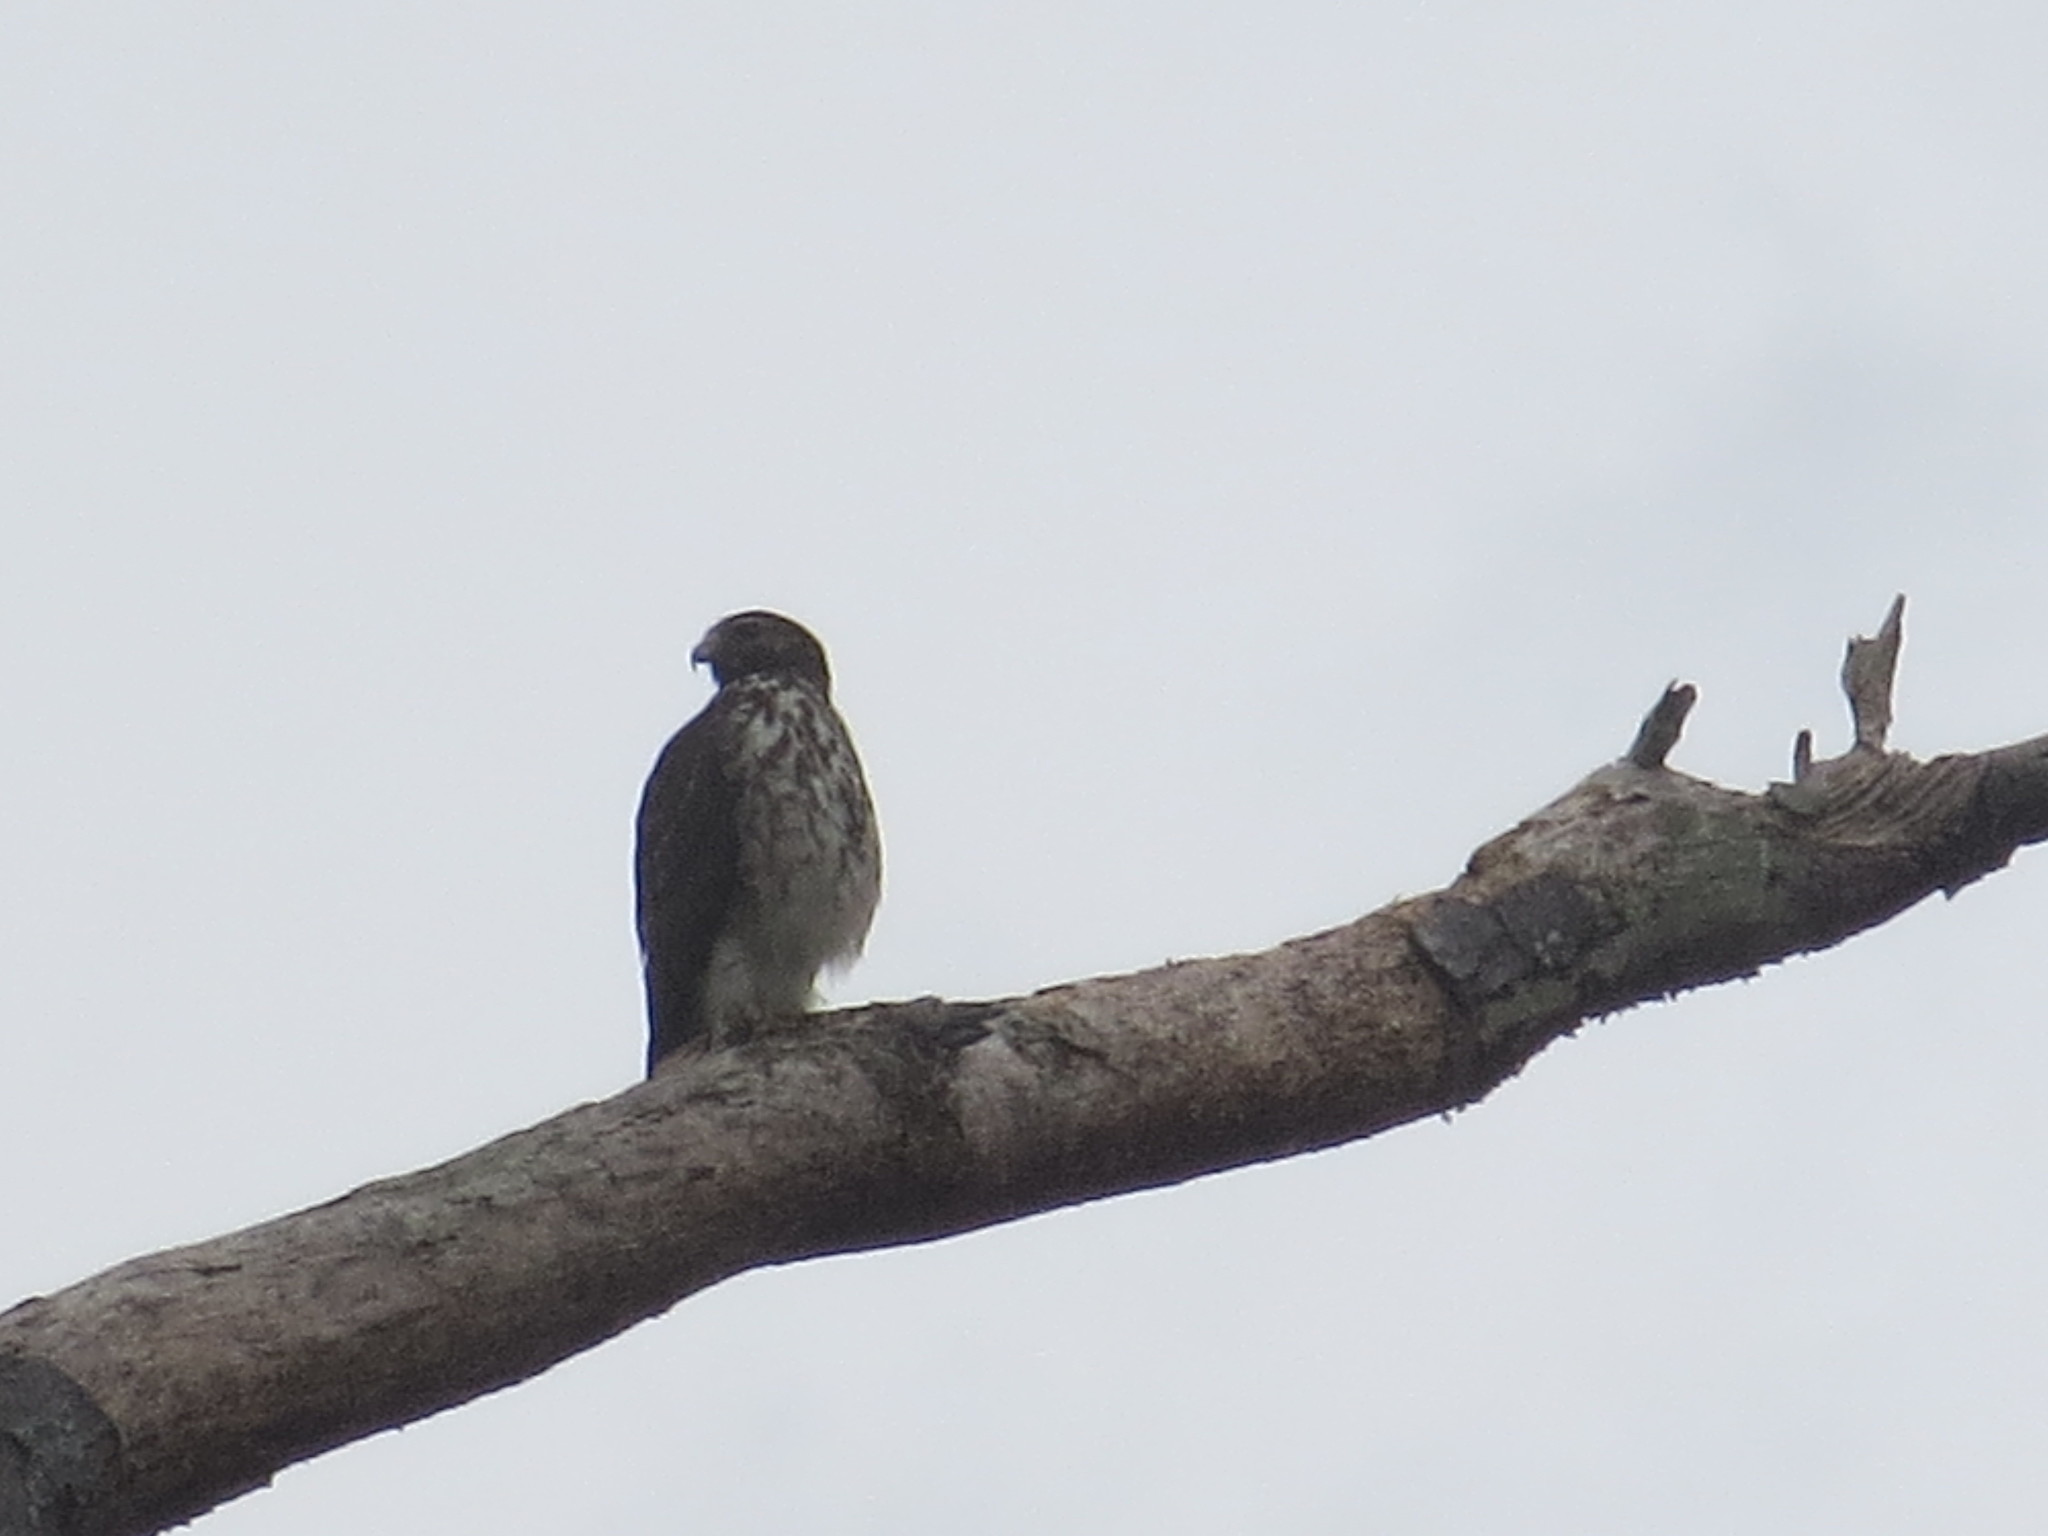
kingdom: Animalia
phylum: Chordata
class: Aves
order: Accipitriformes
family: Accipitridae
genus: Buteo
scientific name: Buteo lineatus
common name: Red-shouldered hawk
